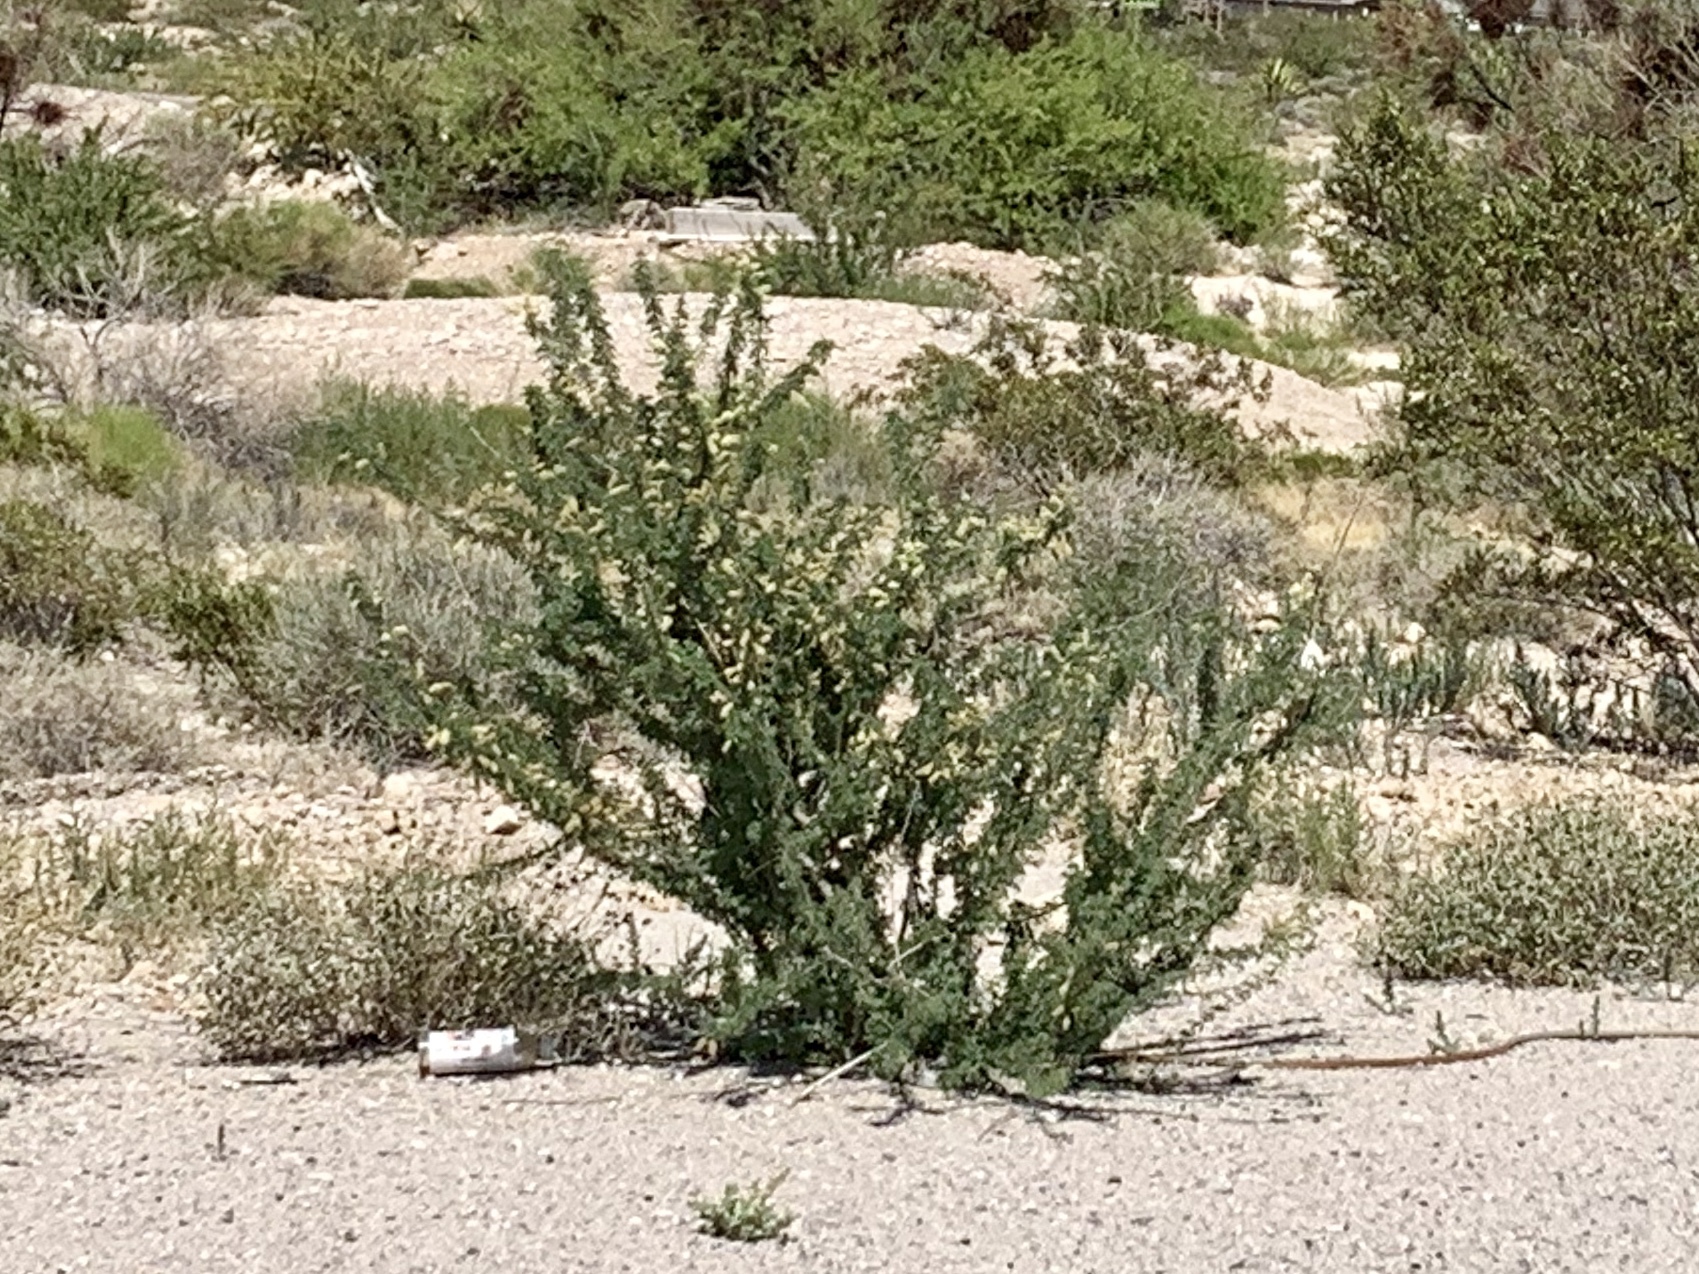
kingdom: Plantae
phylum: Tracheophyta
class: Magnoliopsida
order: Fabales
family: Fabaceae
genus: Senegalia
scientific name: Senegalia greggii
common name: Texas-mimosa
